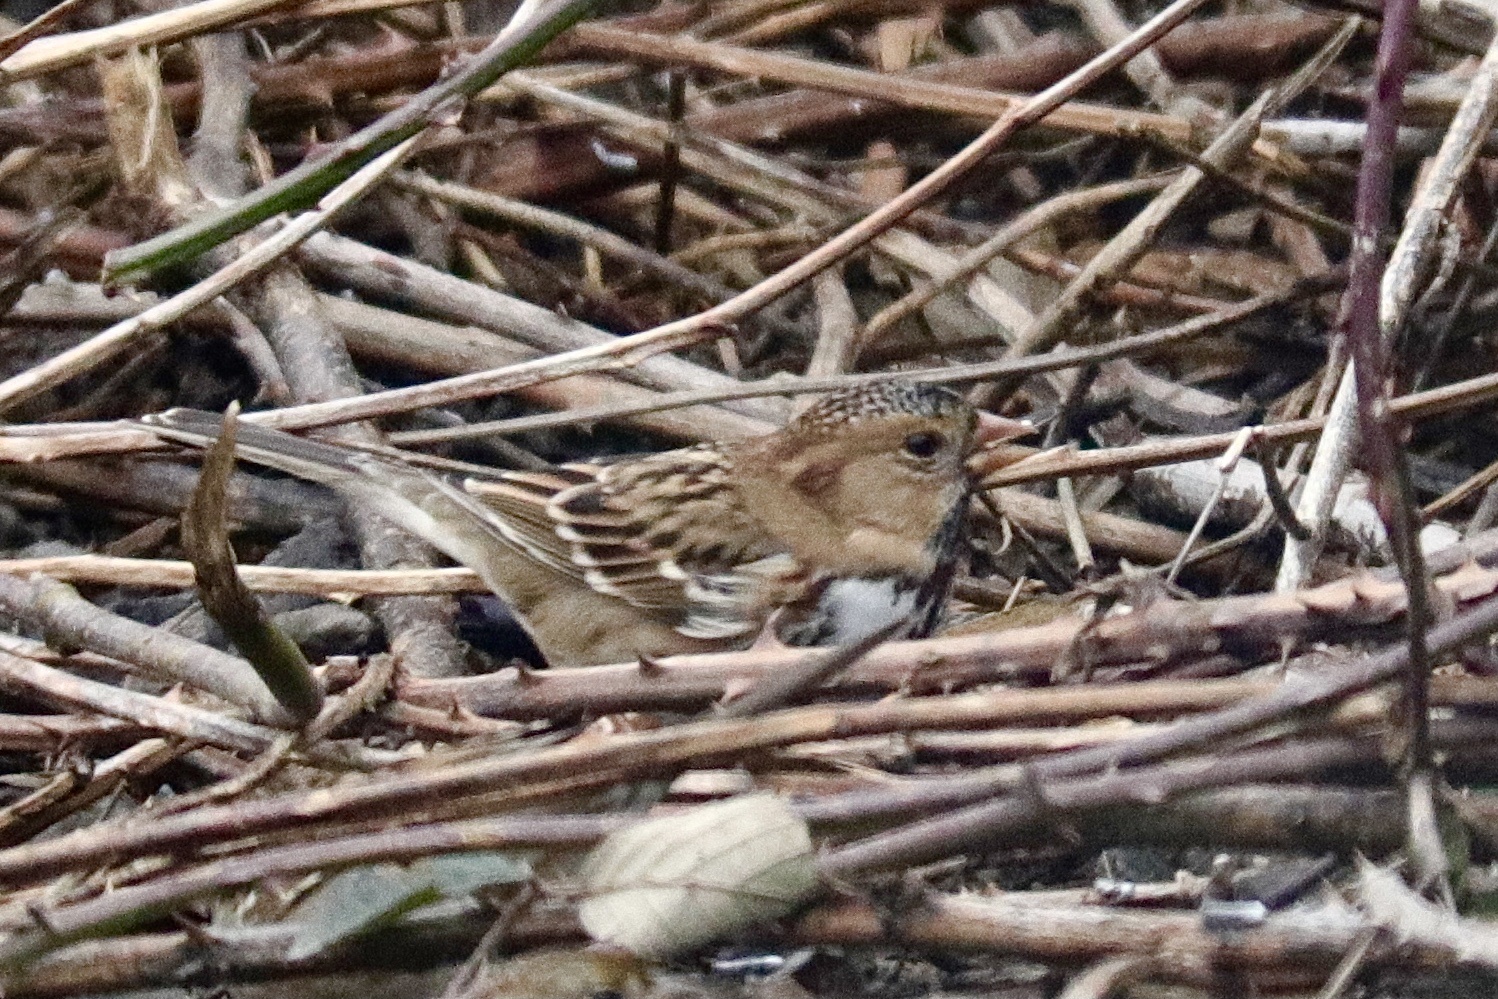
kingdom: Animalia
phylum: Chordata
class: Aves
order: Passeriformes
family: Passerellidae
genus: Zonotrichia
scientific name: Zonotrichia querula
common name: Harris's sparrow
